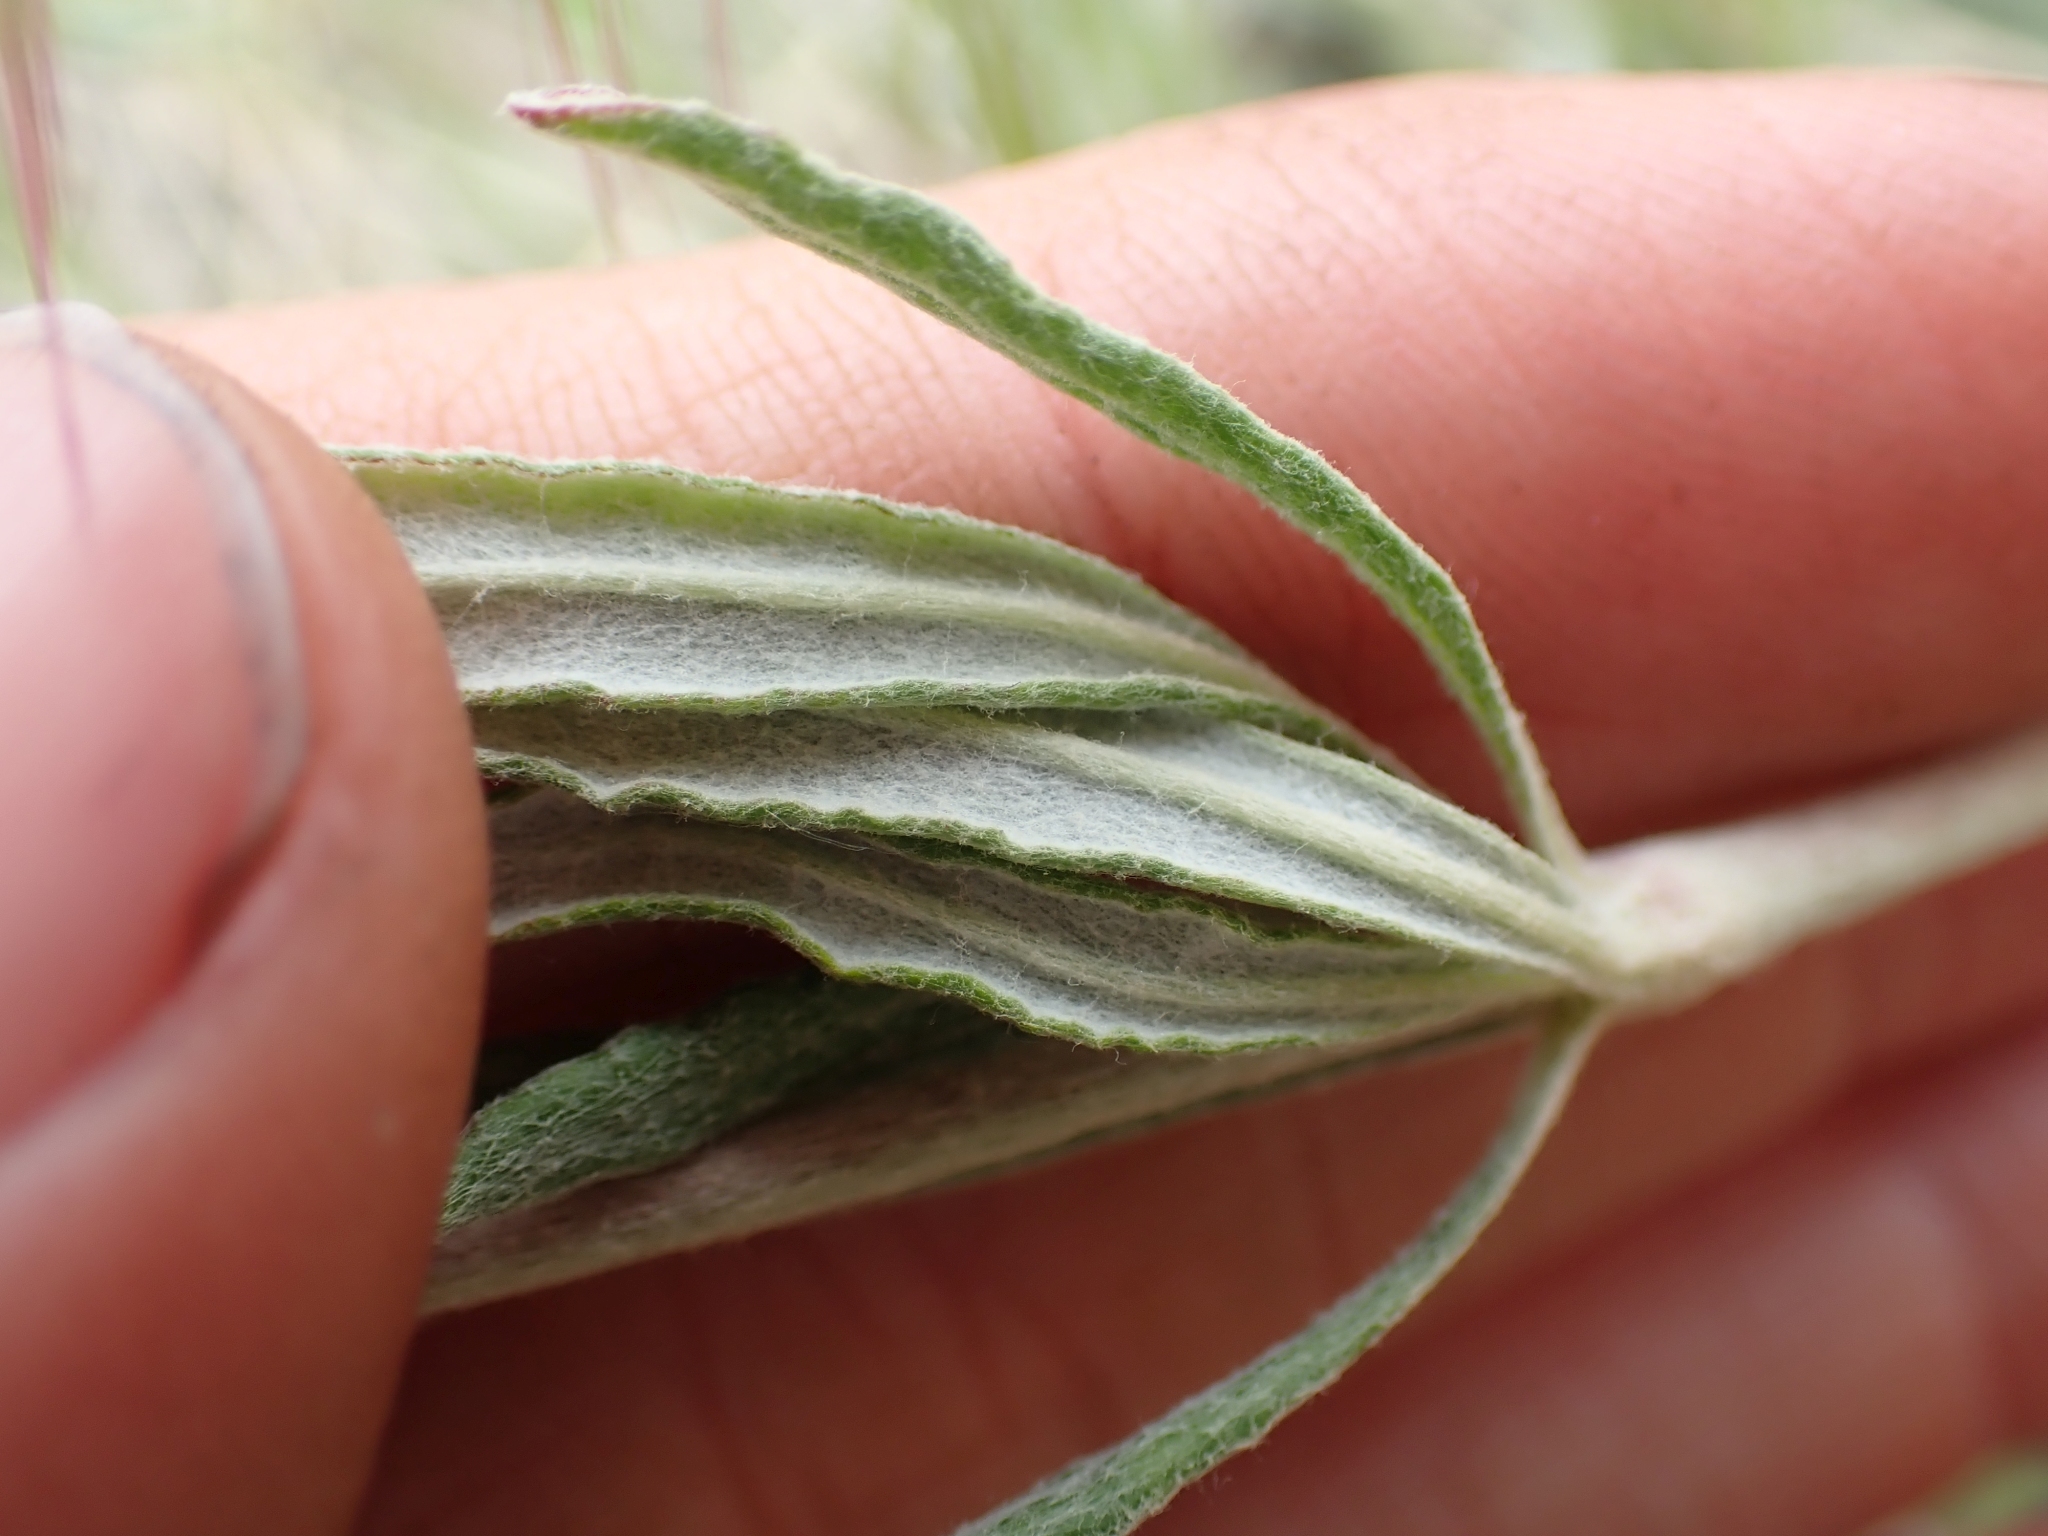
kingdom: Plantae
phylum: Tracheophyta
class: Magnoliopsida
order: Caryophyllales
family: Polygonaceae
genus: Eriogonum
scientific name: Eriogonum heracleoides
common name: Wyeth's buckwheat
